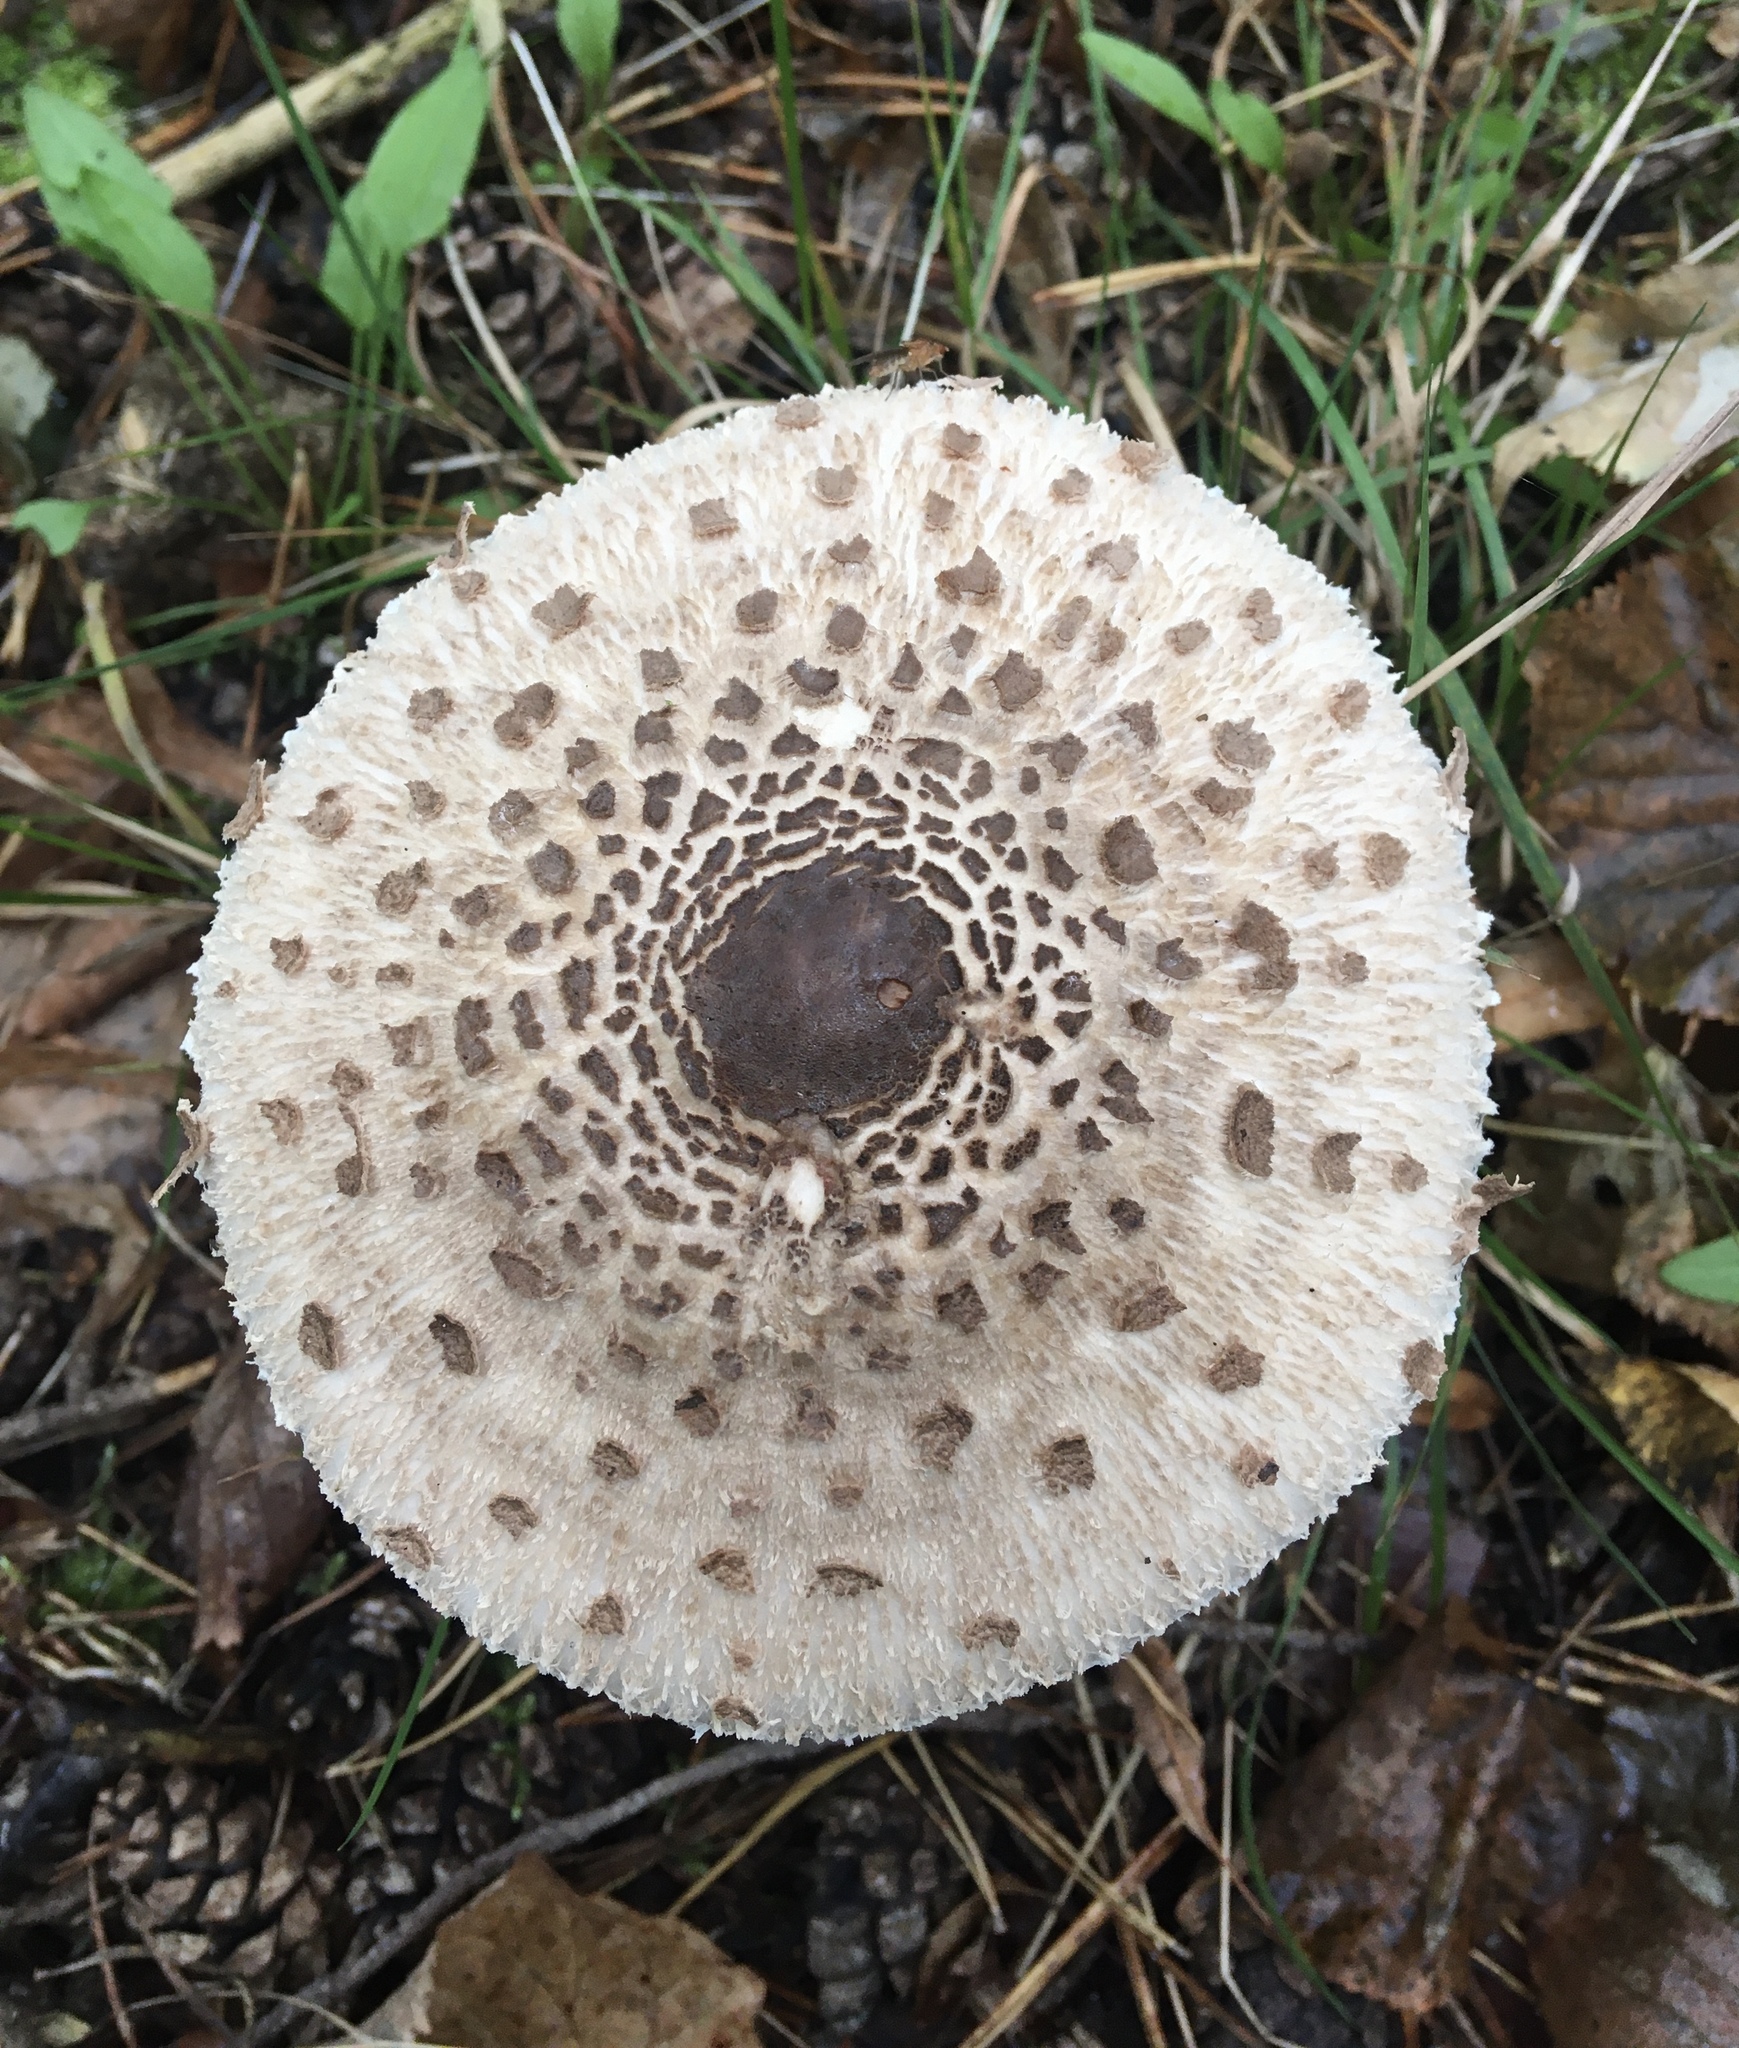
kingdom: Fungi
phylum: Basidiomycota
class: Agaricomycetes
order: Agaricales
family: Agaricaceae
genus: Macrolepiota
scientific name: Macrolepiota procera
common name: Parasol
